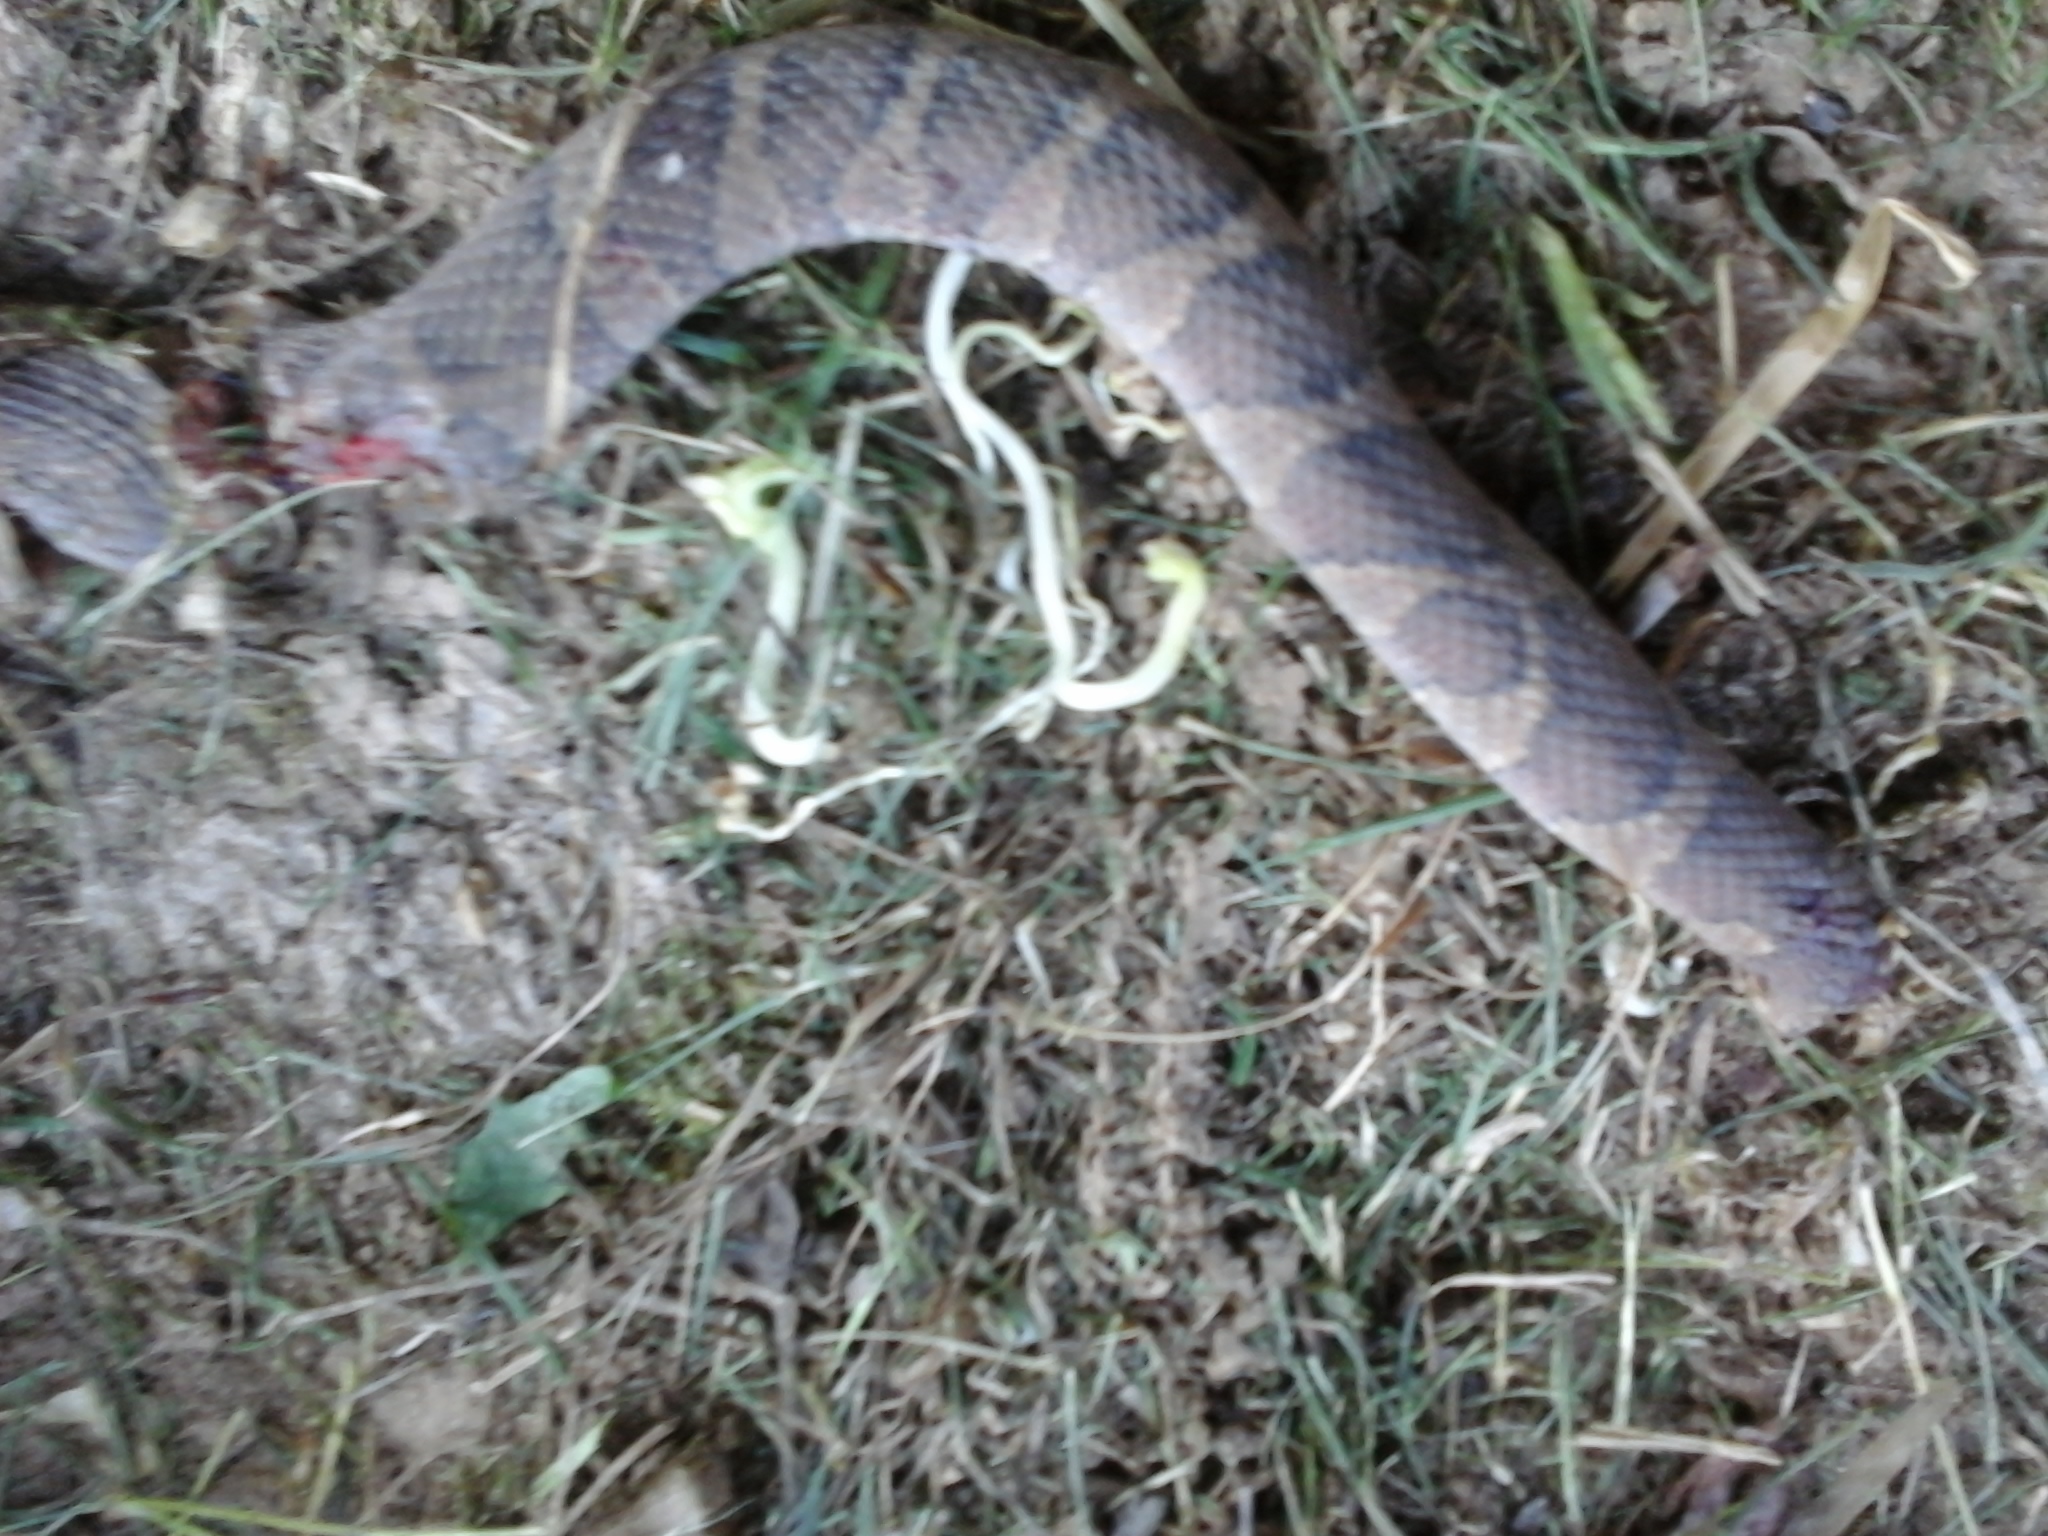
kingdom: Animalia
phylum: Chordata
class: Squamata
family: Colubridae
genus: Nerodia
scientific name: Nerodia sipedon
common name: Northern water snake
